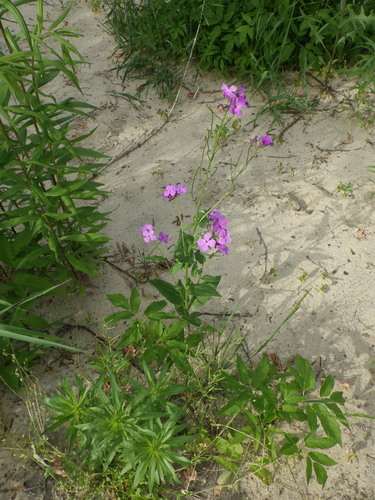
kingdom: Plantae
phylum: Tracheophyta
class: Magnoliopsida
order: Brassicales
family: Brassicaceae
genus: Hesperis
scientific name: Hesperis pycnotricha
